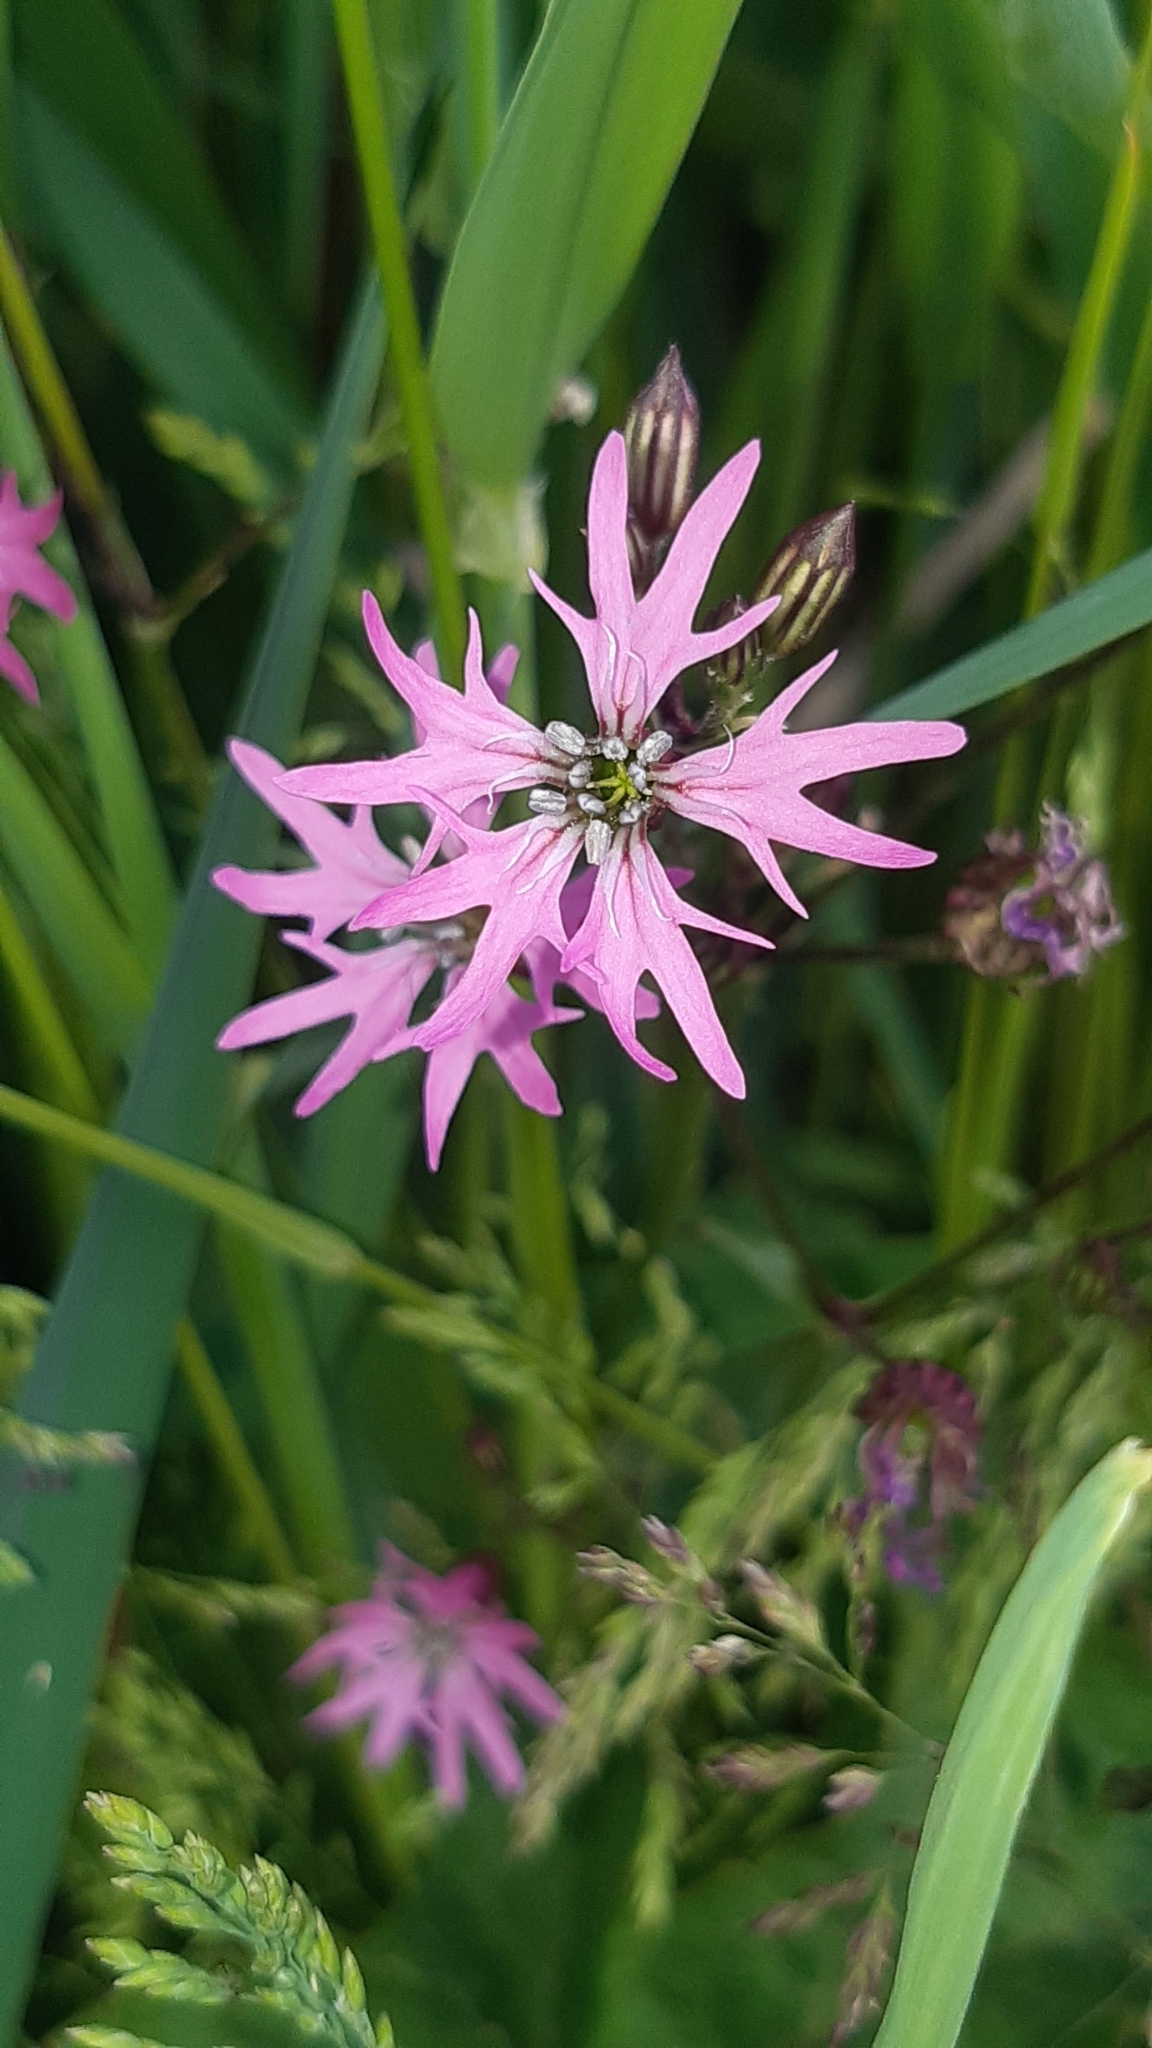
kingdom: Plantae
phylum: Tracheophyta
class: Magnoliopsida
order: Caryophyllales
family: Caryophyllaceae
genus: Silene
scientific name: Silene flos-cuculi
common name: Ragged-robin
